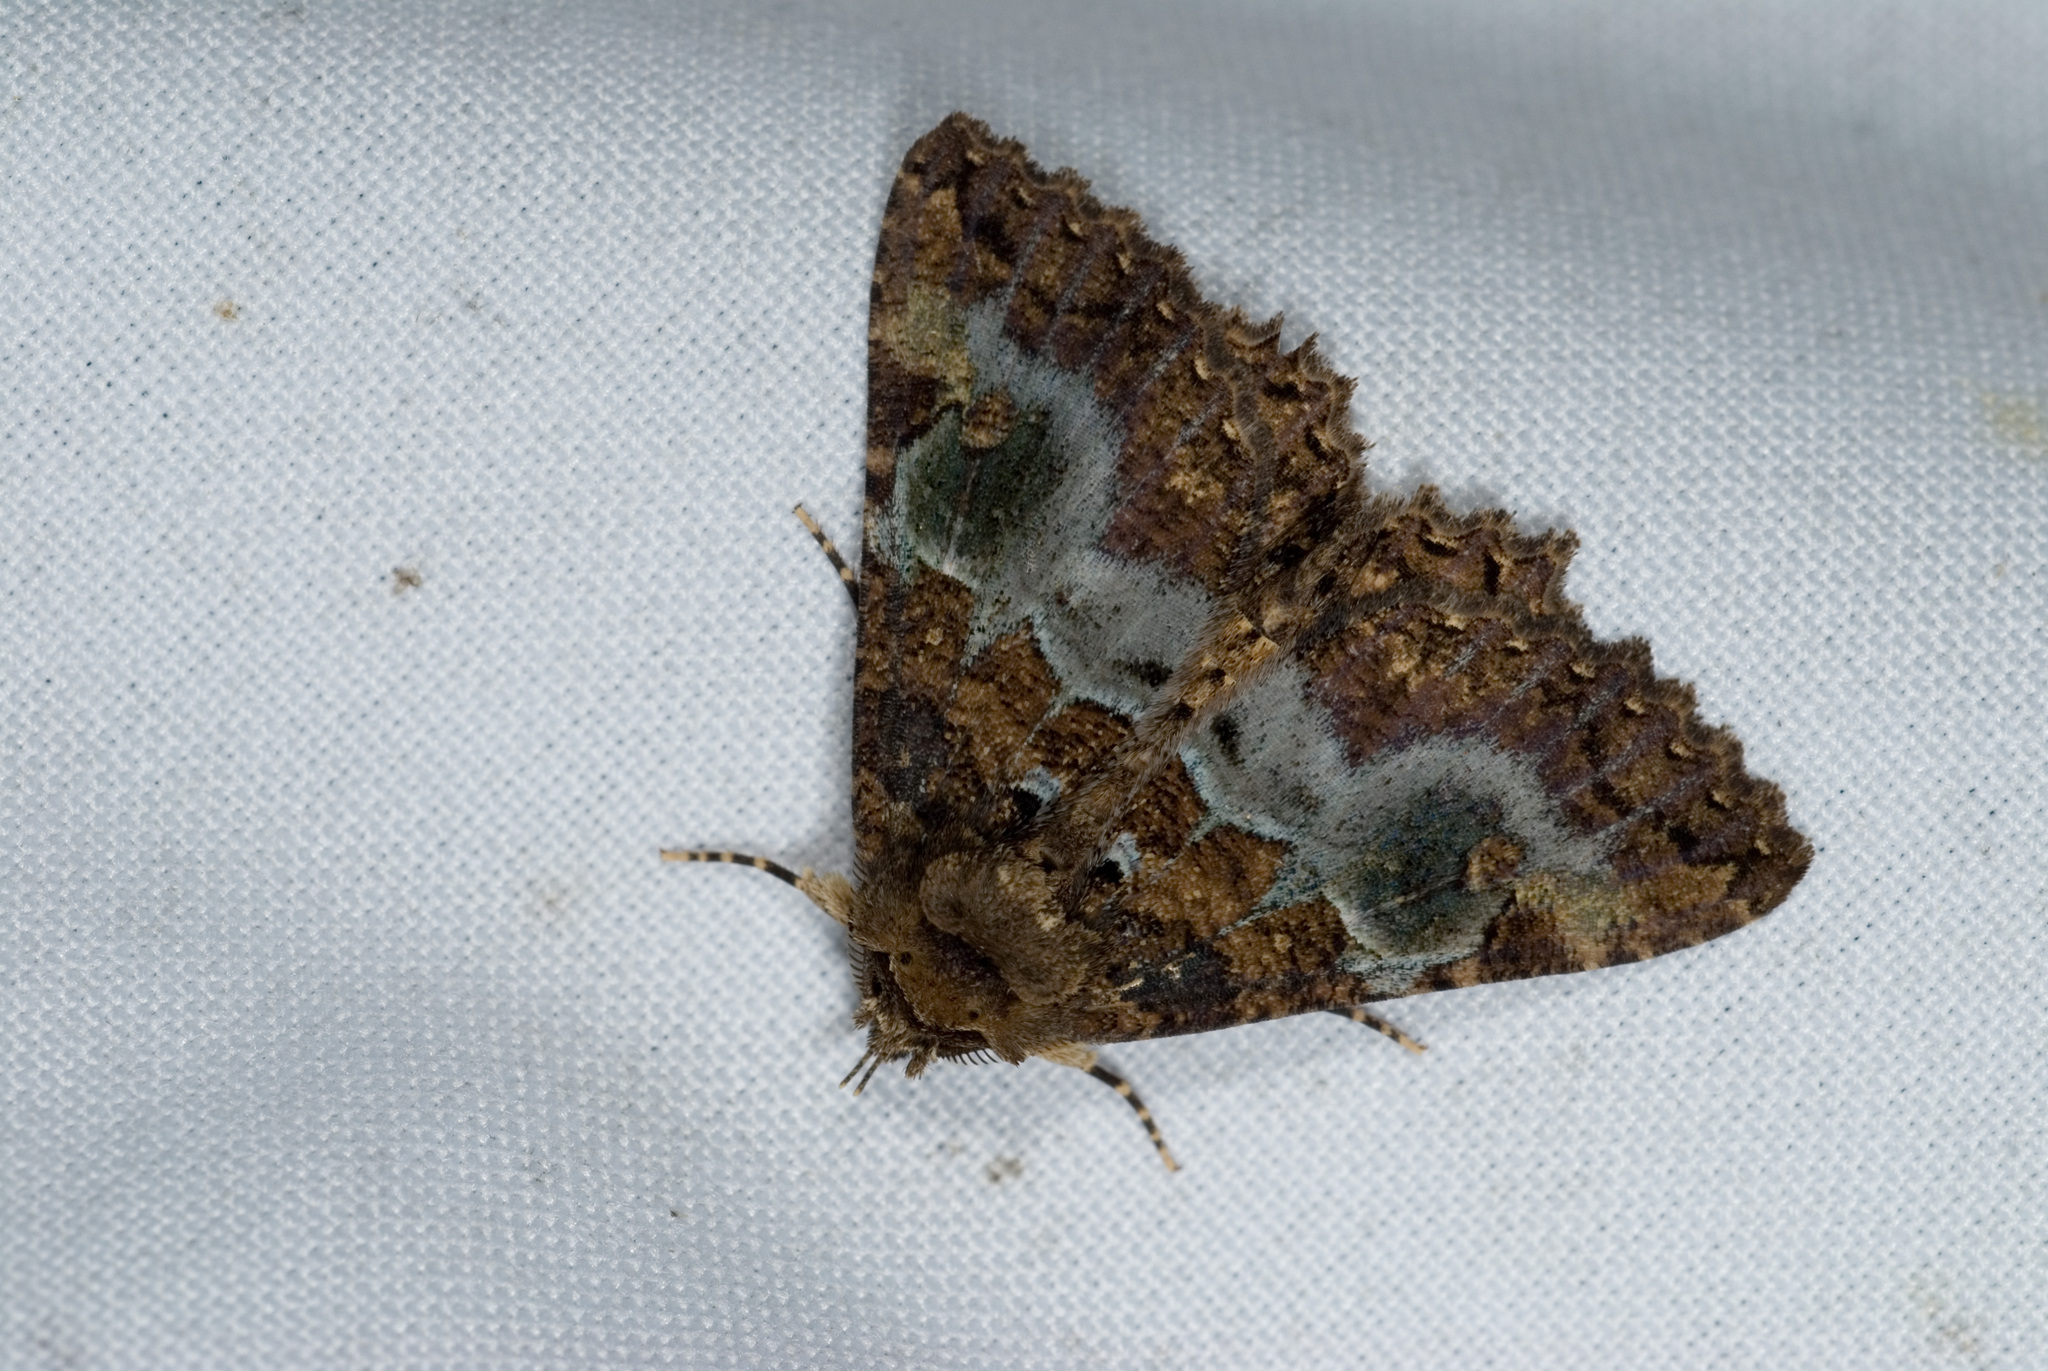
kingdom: Animalia
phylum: Arthropoda
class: Insecta
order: Lepidoptera
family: Erebidae
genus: Daddala
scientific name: Daddala lucilla
